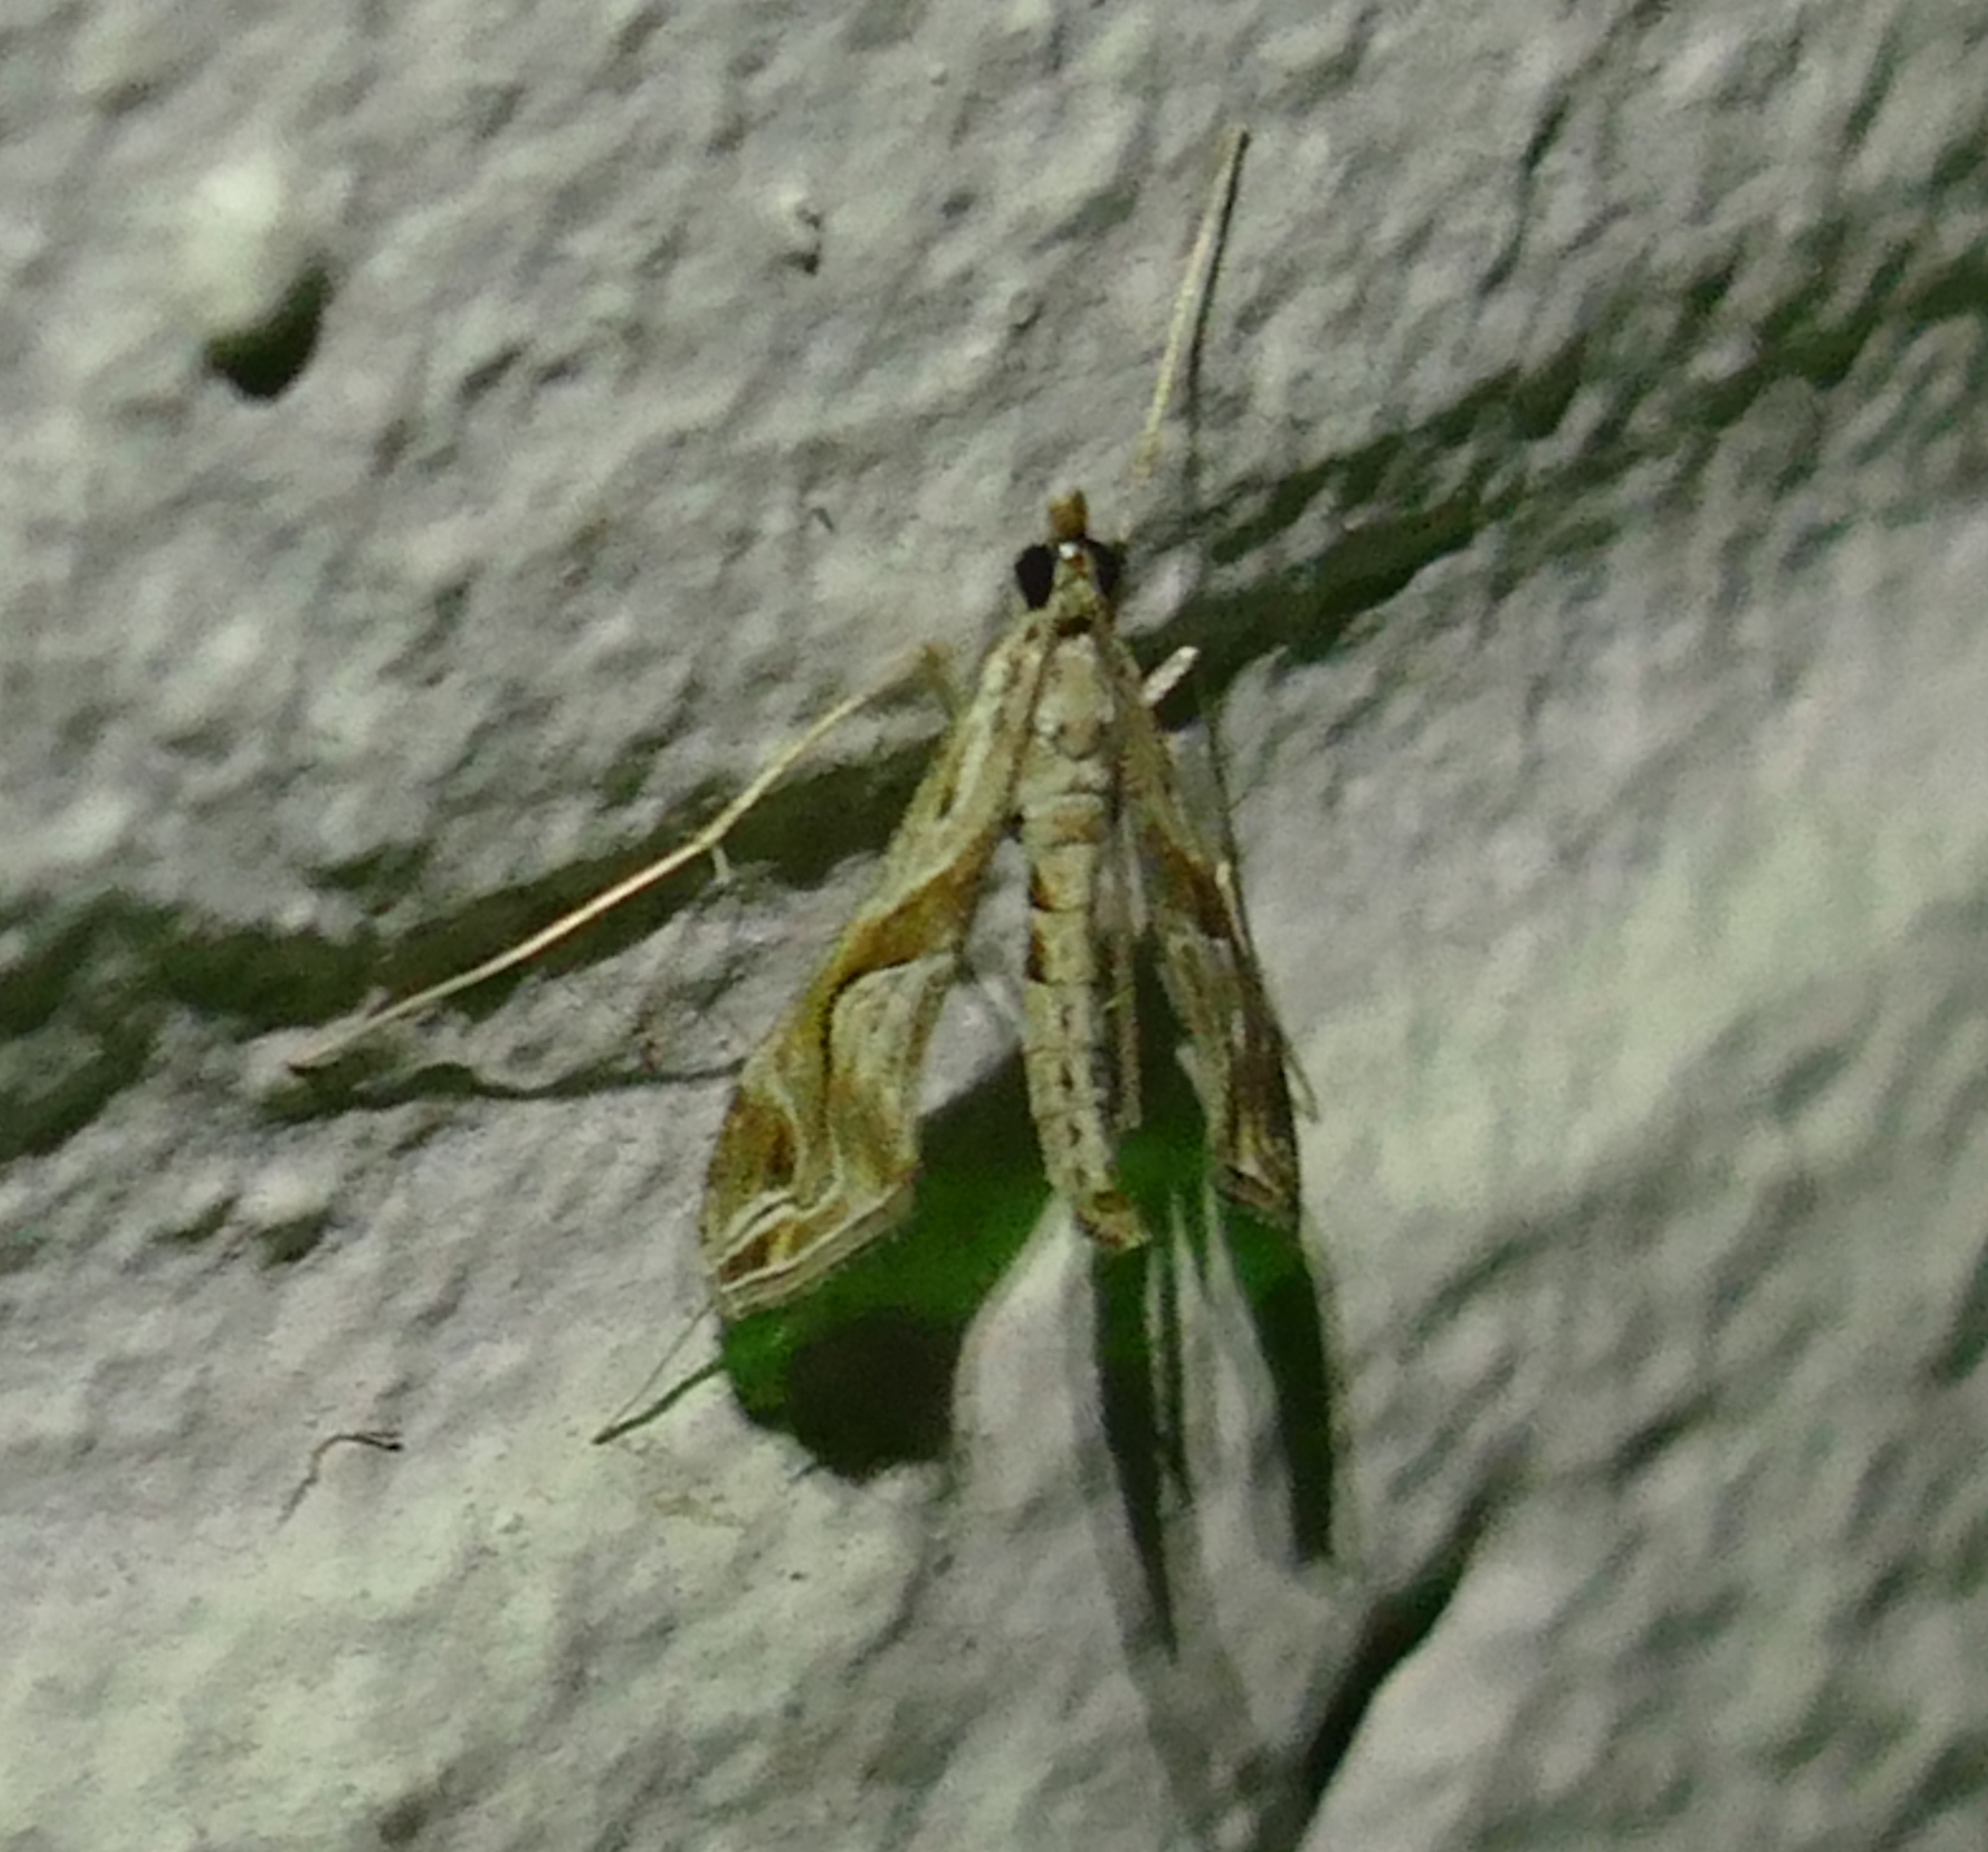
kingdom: Animalia
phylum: Arthropoda
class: Insecta
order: Lepidoptera
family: Crambidae
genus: Lineodes
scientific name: Lineodes integra
